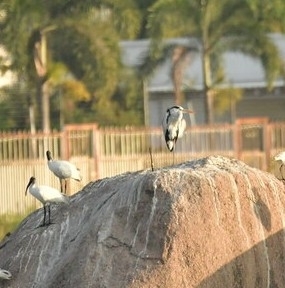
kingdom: Animalia
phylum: Chordata
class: Aves
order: Pelecaniformes
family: Ardeidae
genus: Ardea
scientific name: Ardea cinerea
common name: Grey heron
